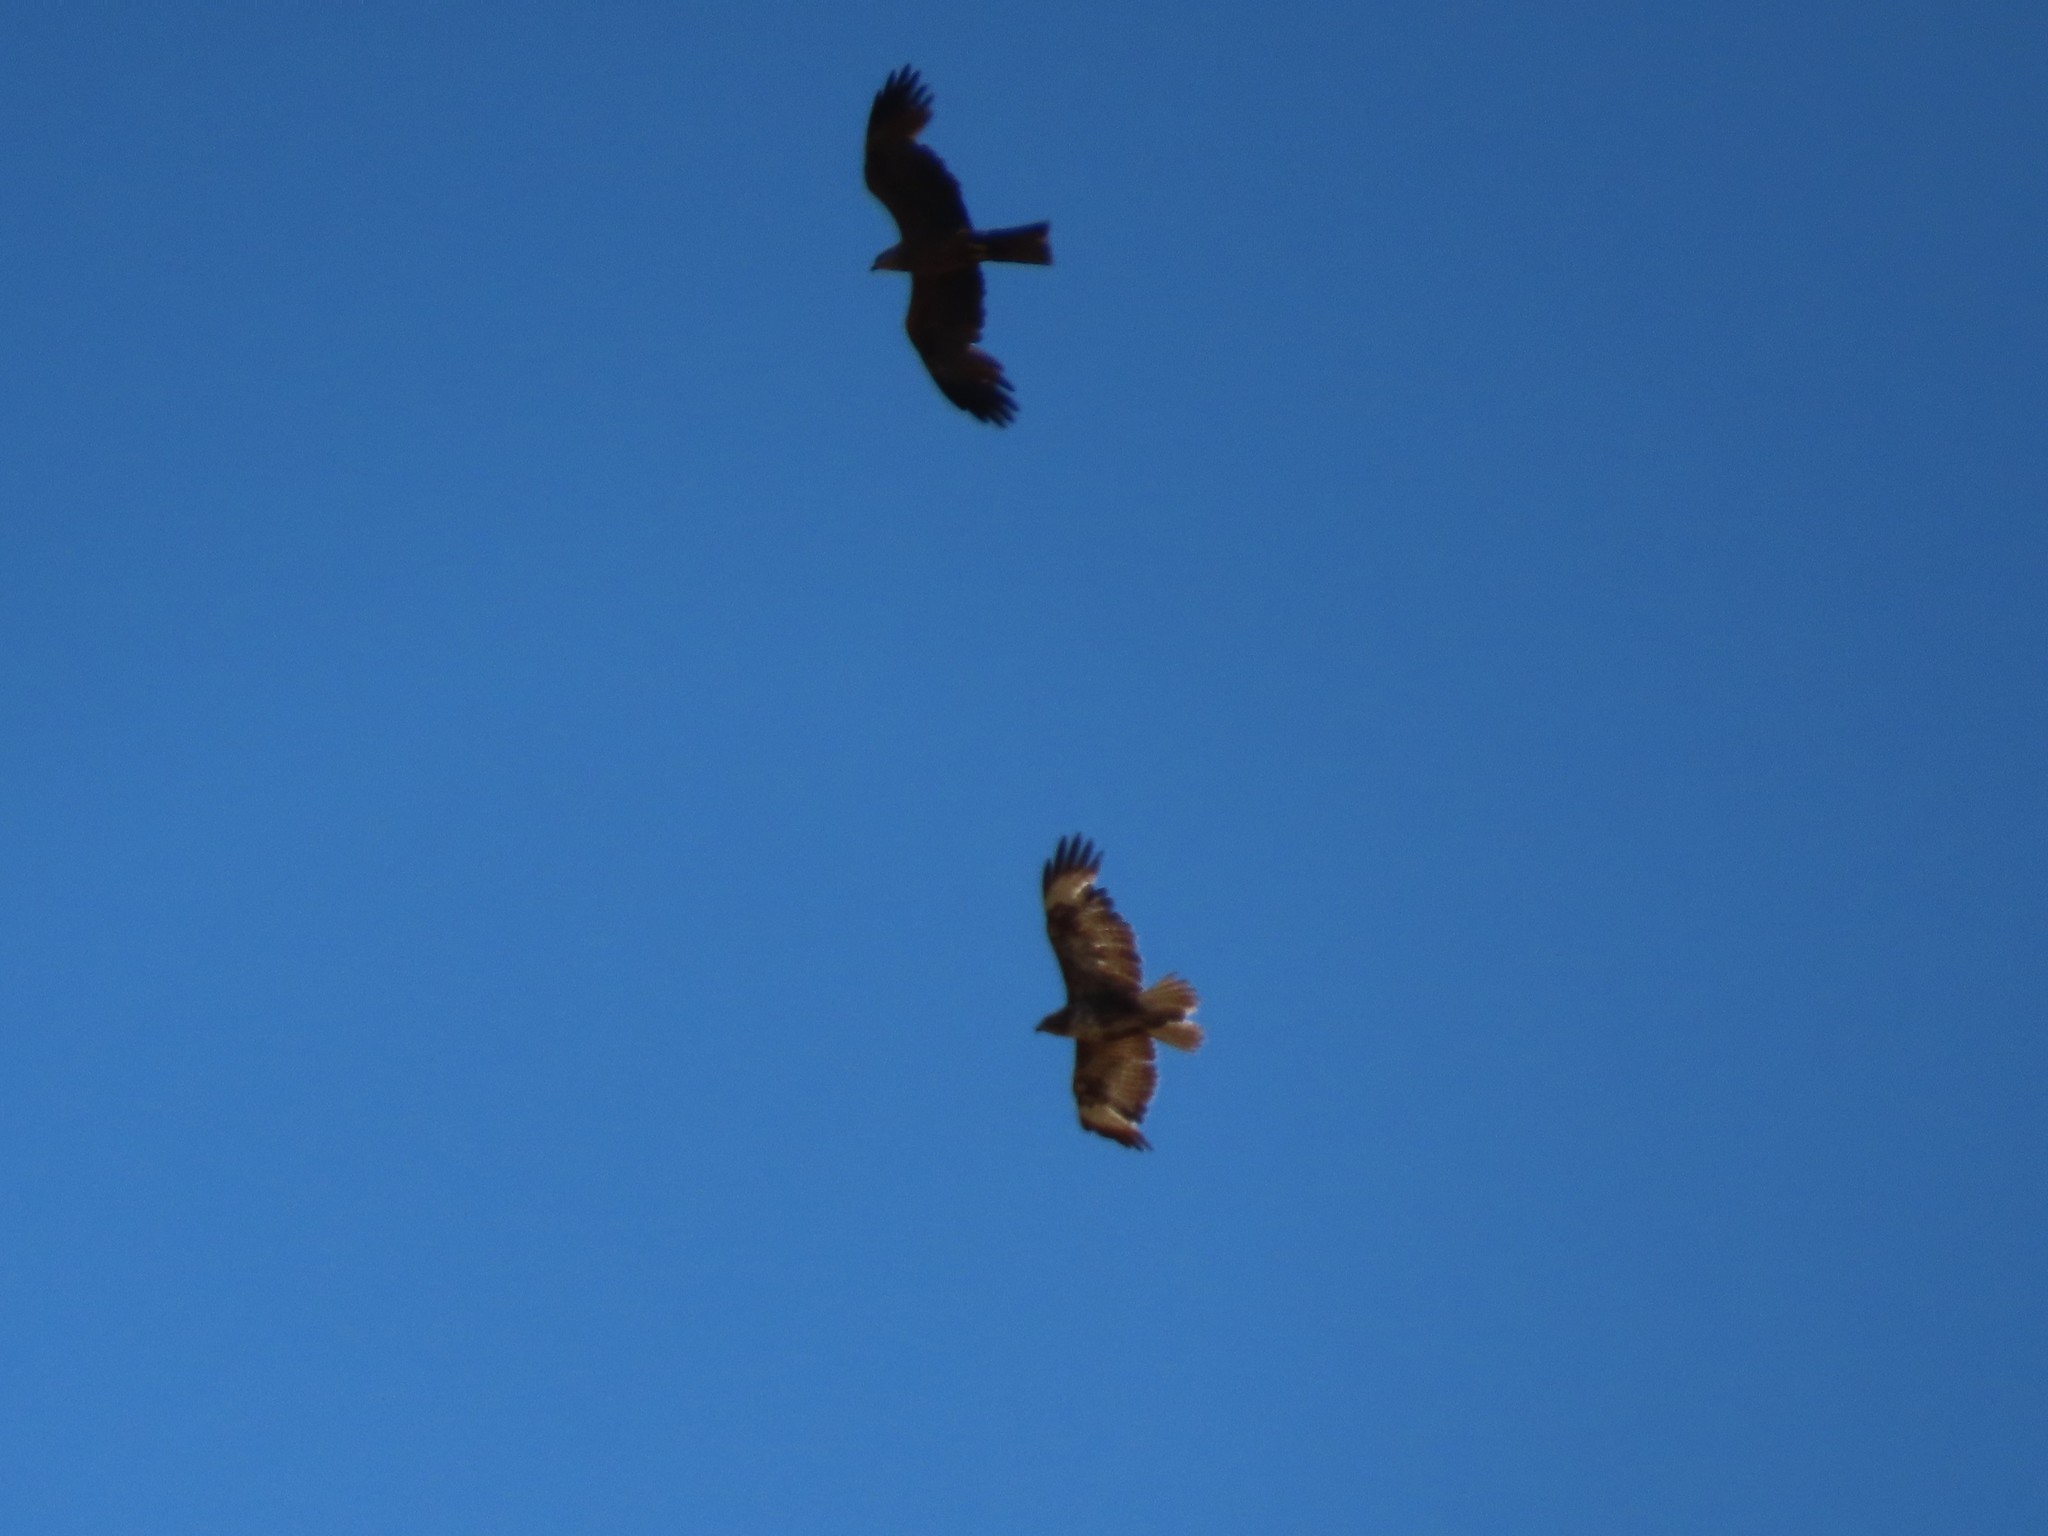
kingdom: Animalia
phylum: Chordata
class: Aves
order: Accipitriformes
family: Accipitridae
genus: Milvus
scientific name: Milvus migrans
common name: Black kite
